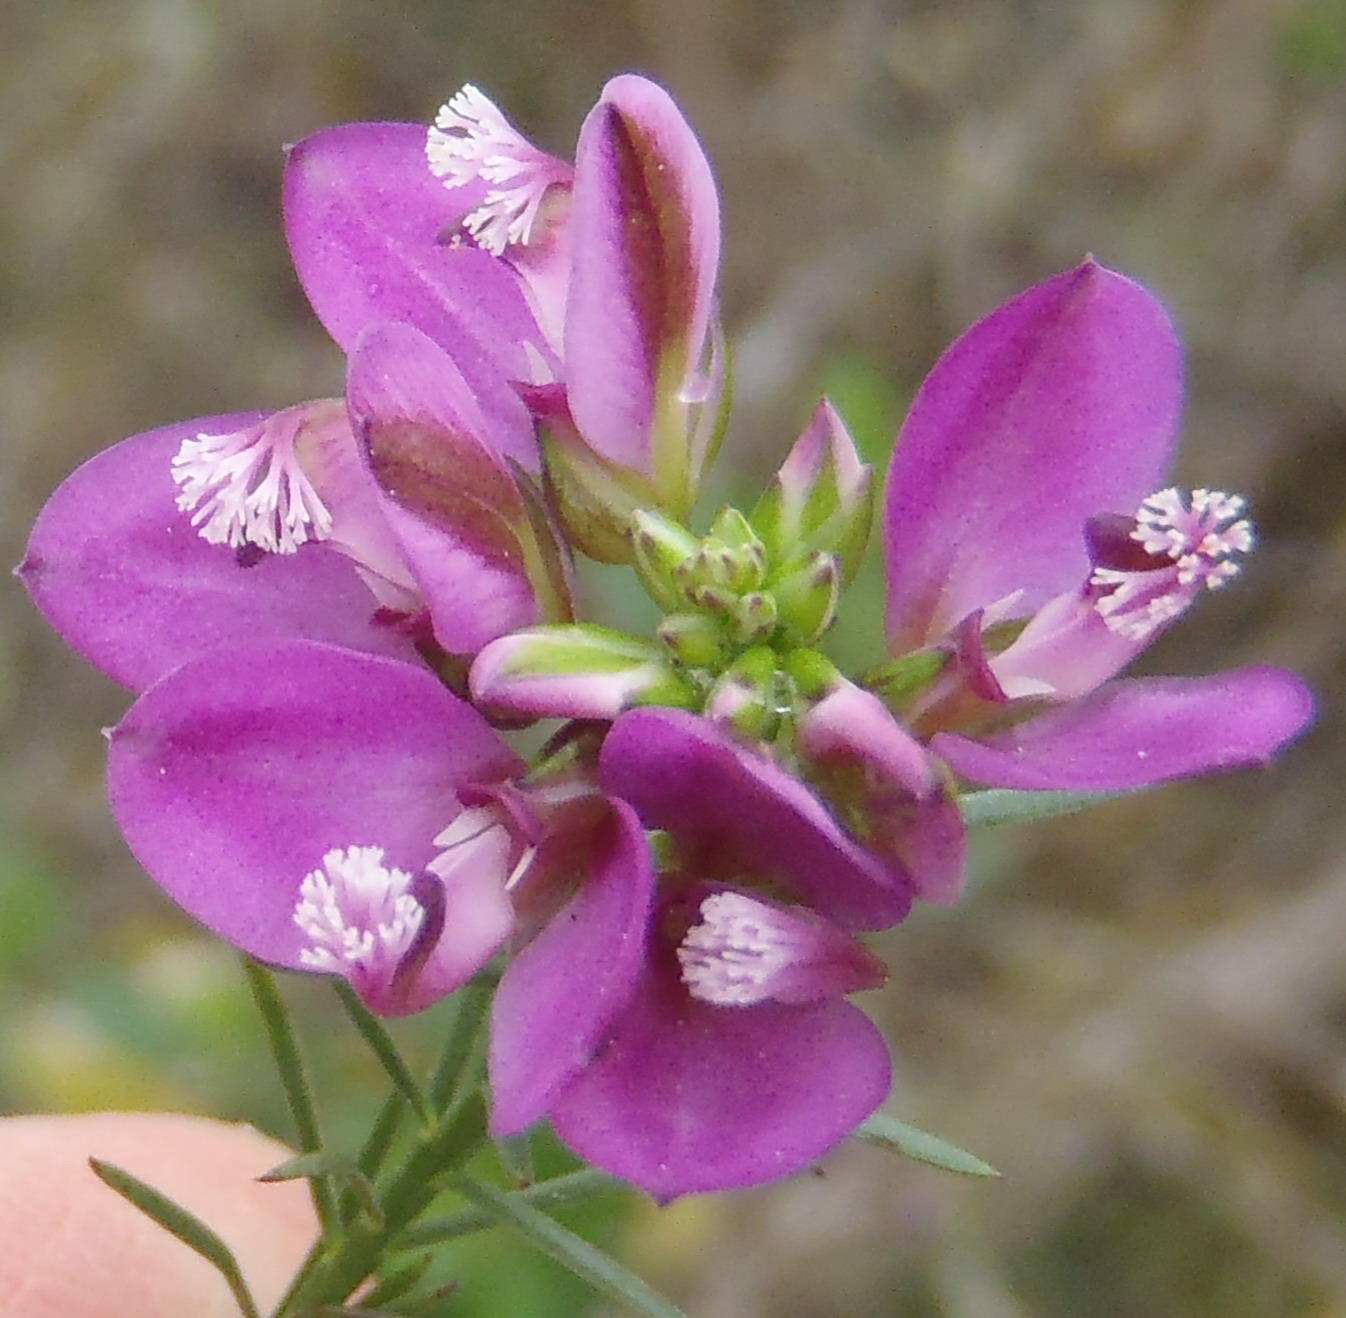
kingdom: Plantae
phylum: Tracheophyta
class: Magnoliopsida
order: Fabales
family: Polygalaceae
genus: Polygala
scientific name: Polygala ericifolia
